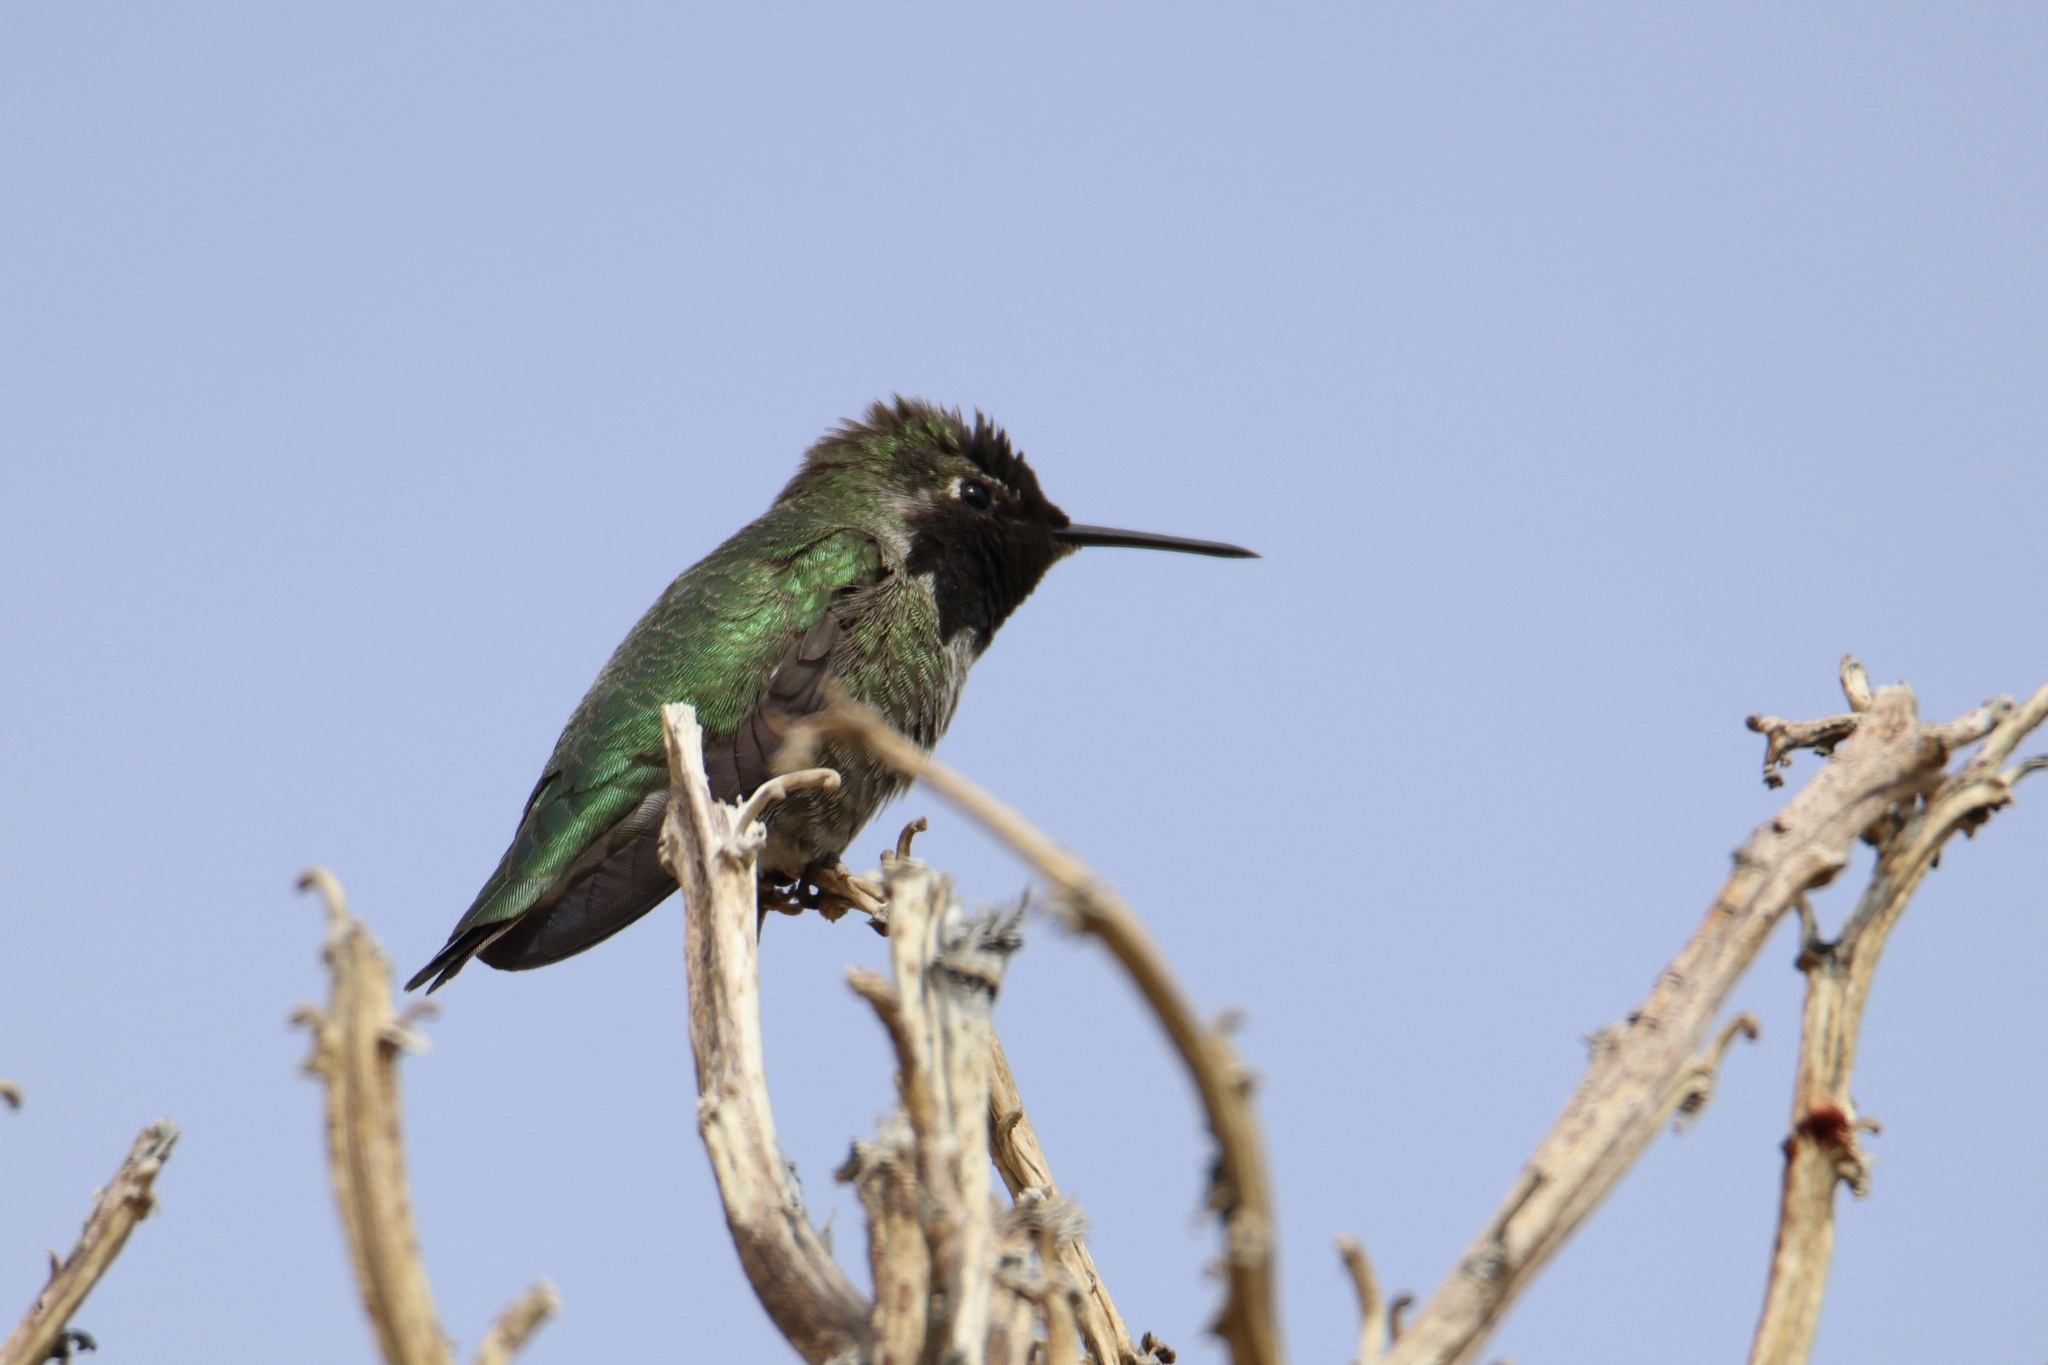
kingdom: Animalia
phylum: Chordata
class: Aves
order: Apodiformes
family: Trochilidae
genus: Calypte
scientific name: Calypte anna
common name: Anna's hummingbird
